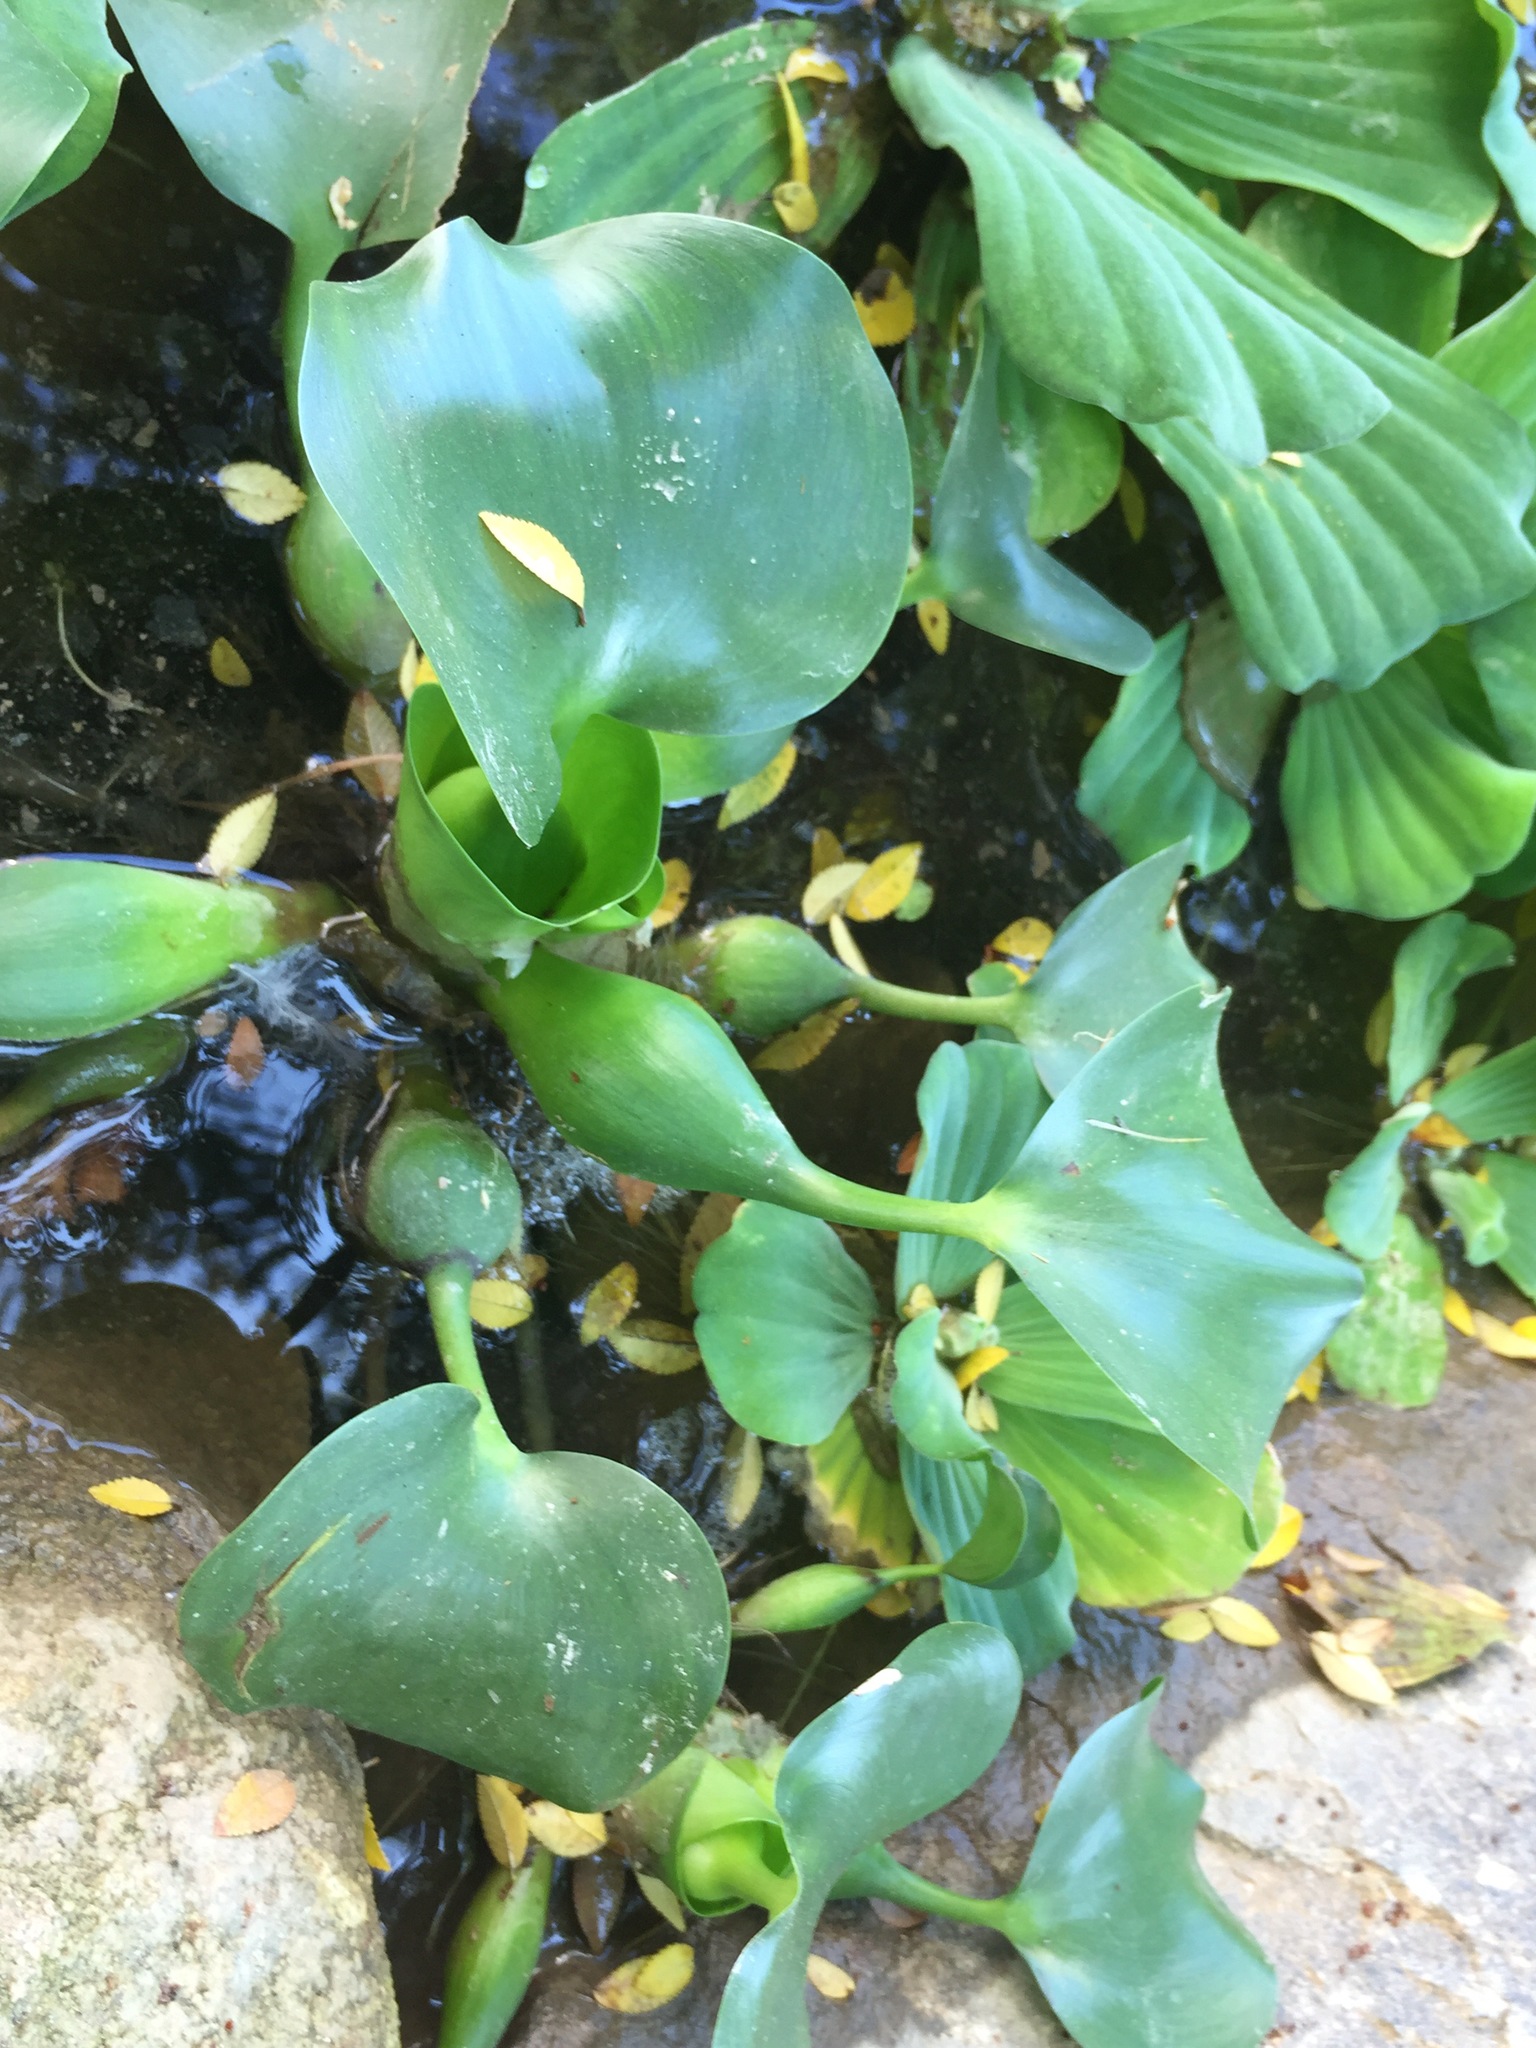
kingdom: Plantae
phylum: Tracheophyta
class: Liliopsida
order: Commelinales
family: Pontederiaceae
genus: Pontederia
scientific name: Pontederia crassipes
